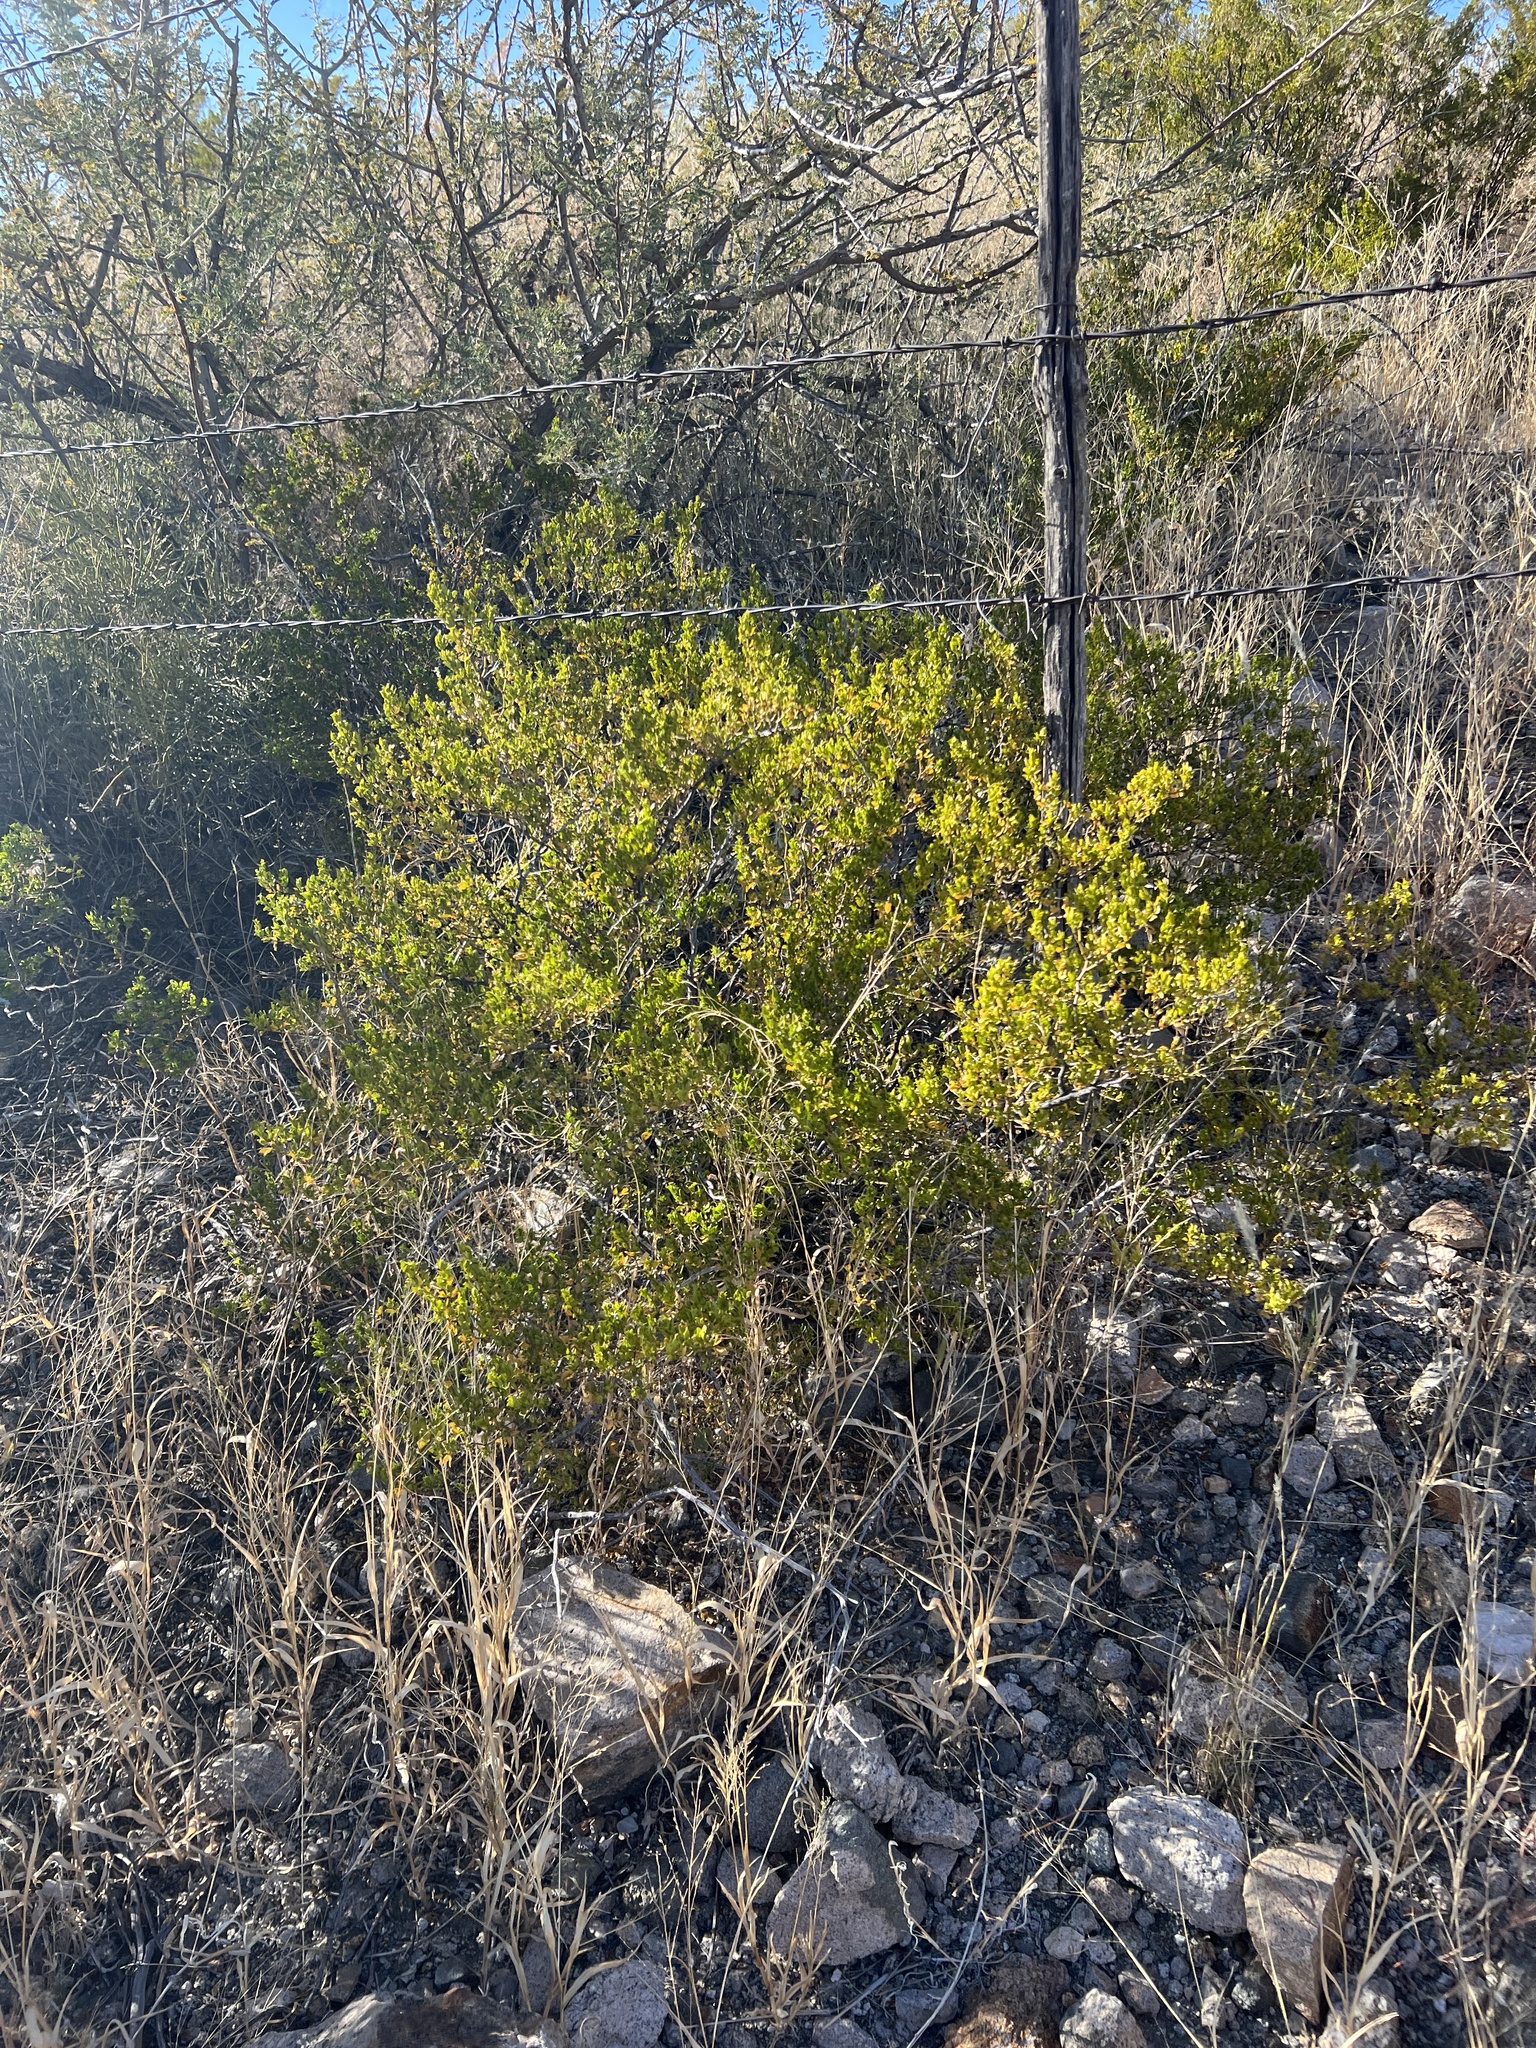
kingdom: Plantae
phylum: Tracheophyta
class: Magnoliopsida
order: Zygophyllales
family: Zygophyllaceae
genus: Larrea
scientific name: Larrea tridentata
